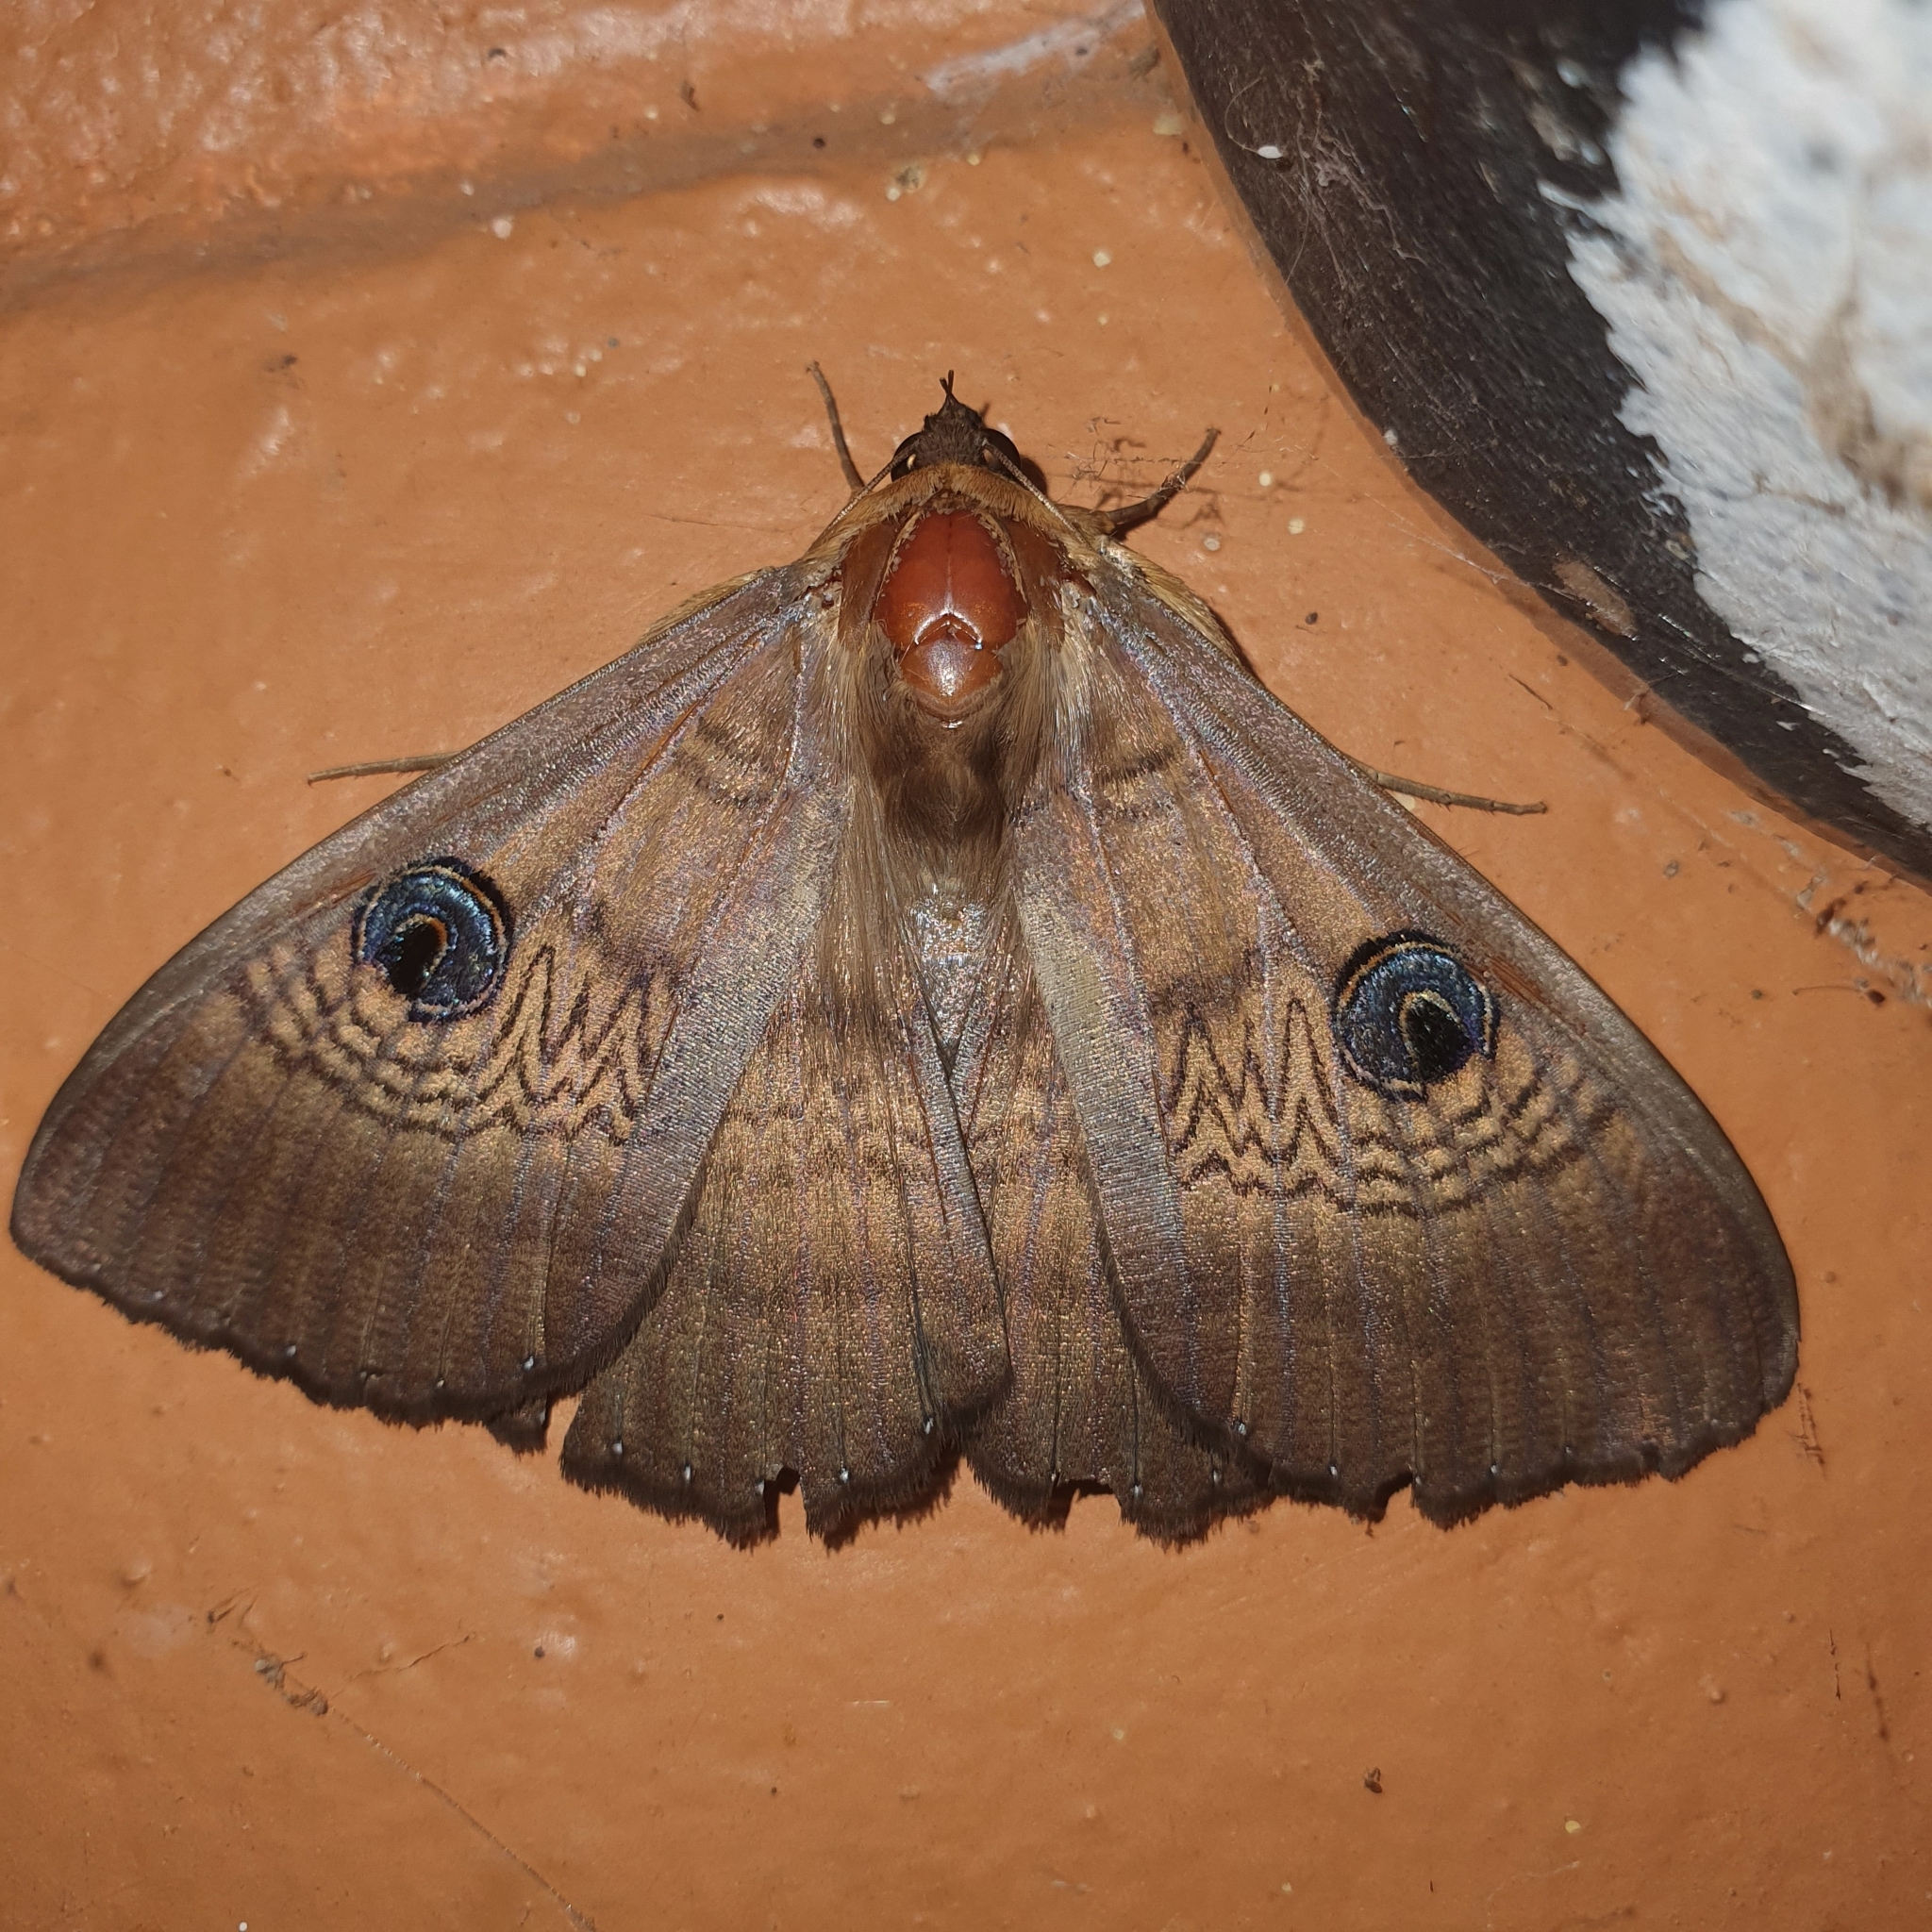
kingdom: Animalia
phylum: Arthropoda
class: Insecta
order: Lepidoptera
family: Erebidae
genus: Dasypodia
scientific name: Dasypodia selenophora
